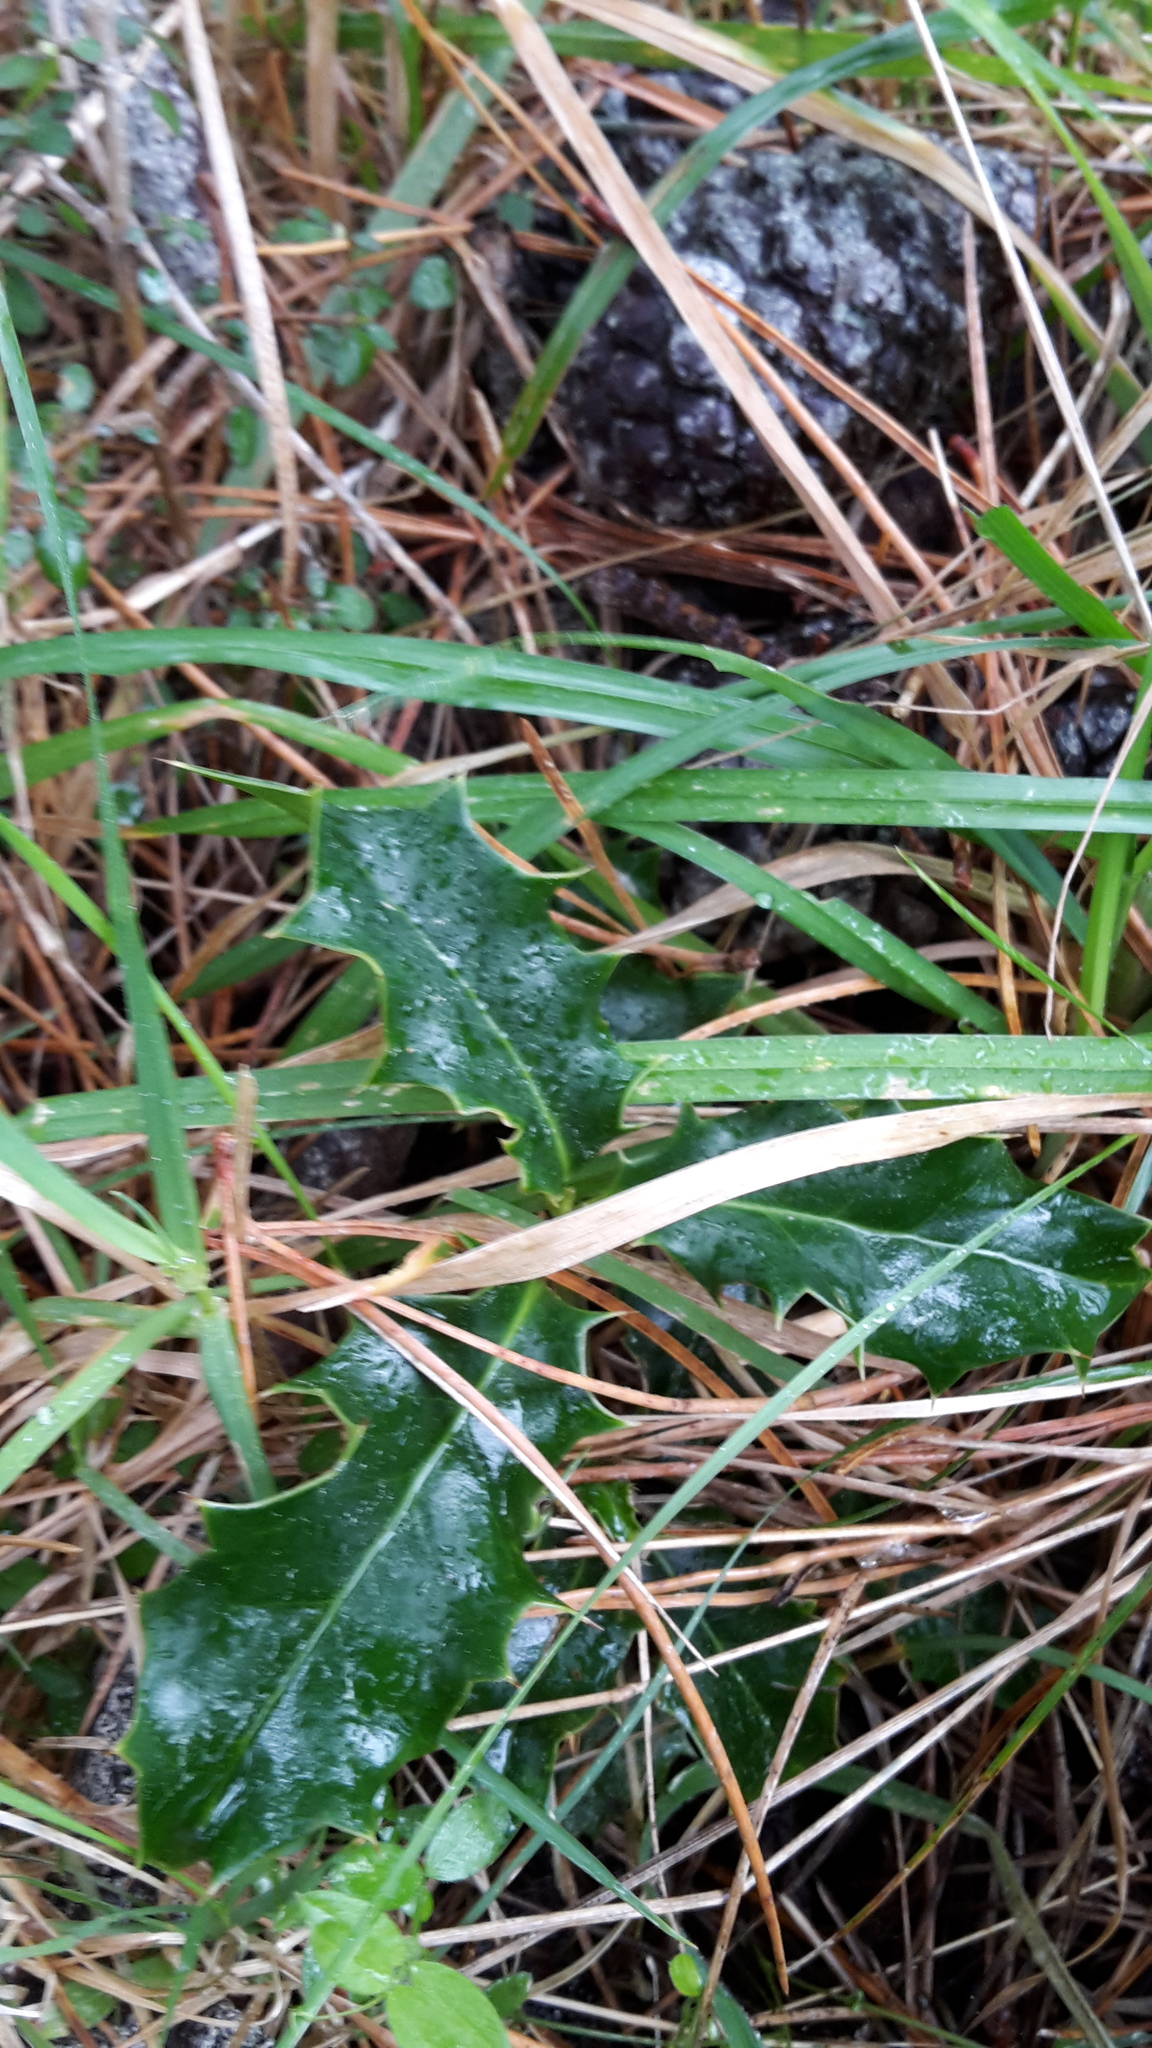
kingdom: Plantae
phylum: Tracheophyta
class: Magnoliopsida
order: Aquifoliales
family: Aquifoliaceae
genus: Ilex
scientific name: Ilex aquifolium
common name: English holly
